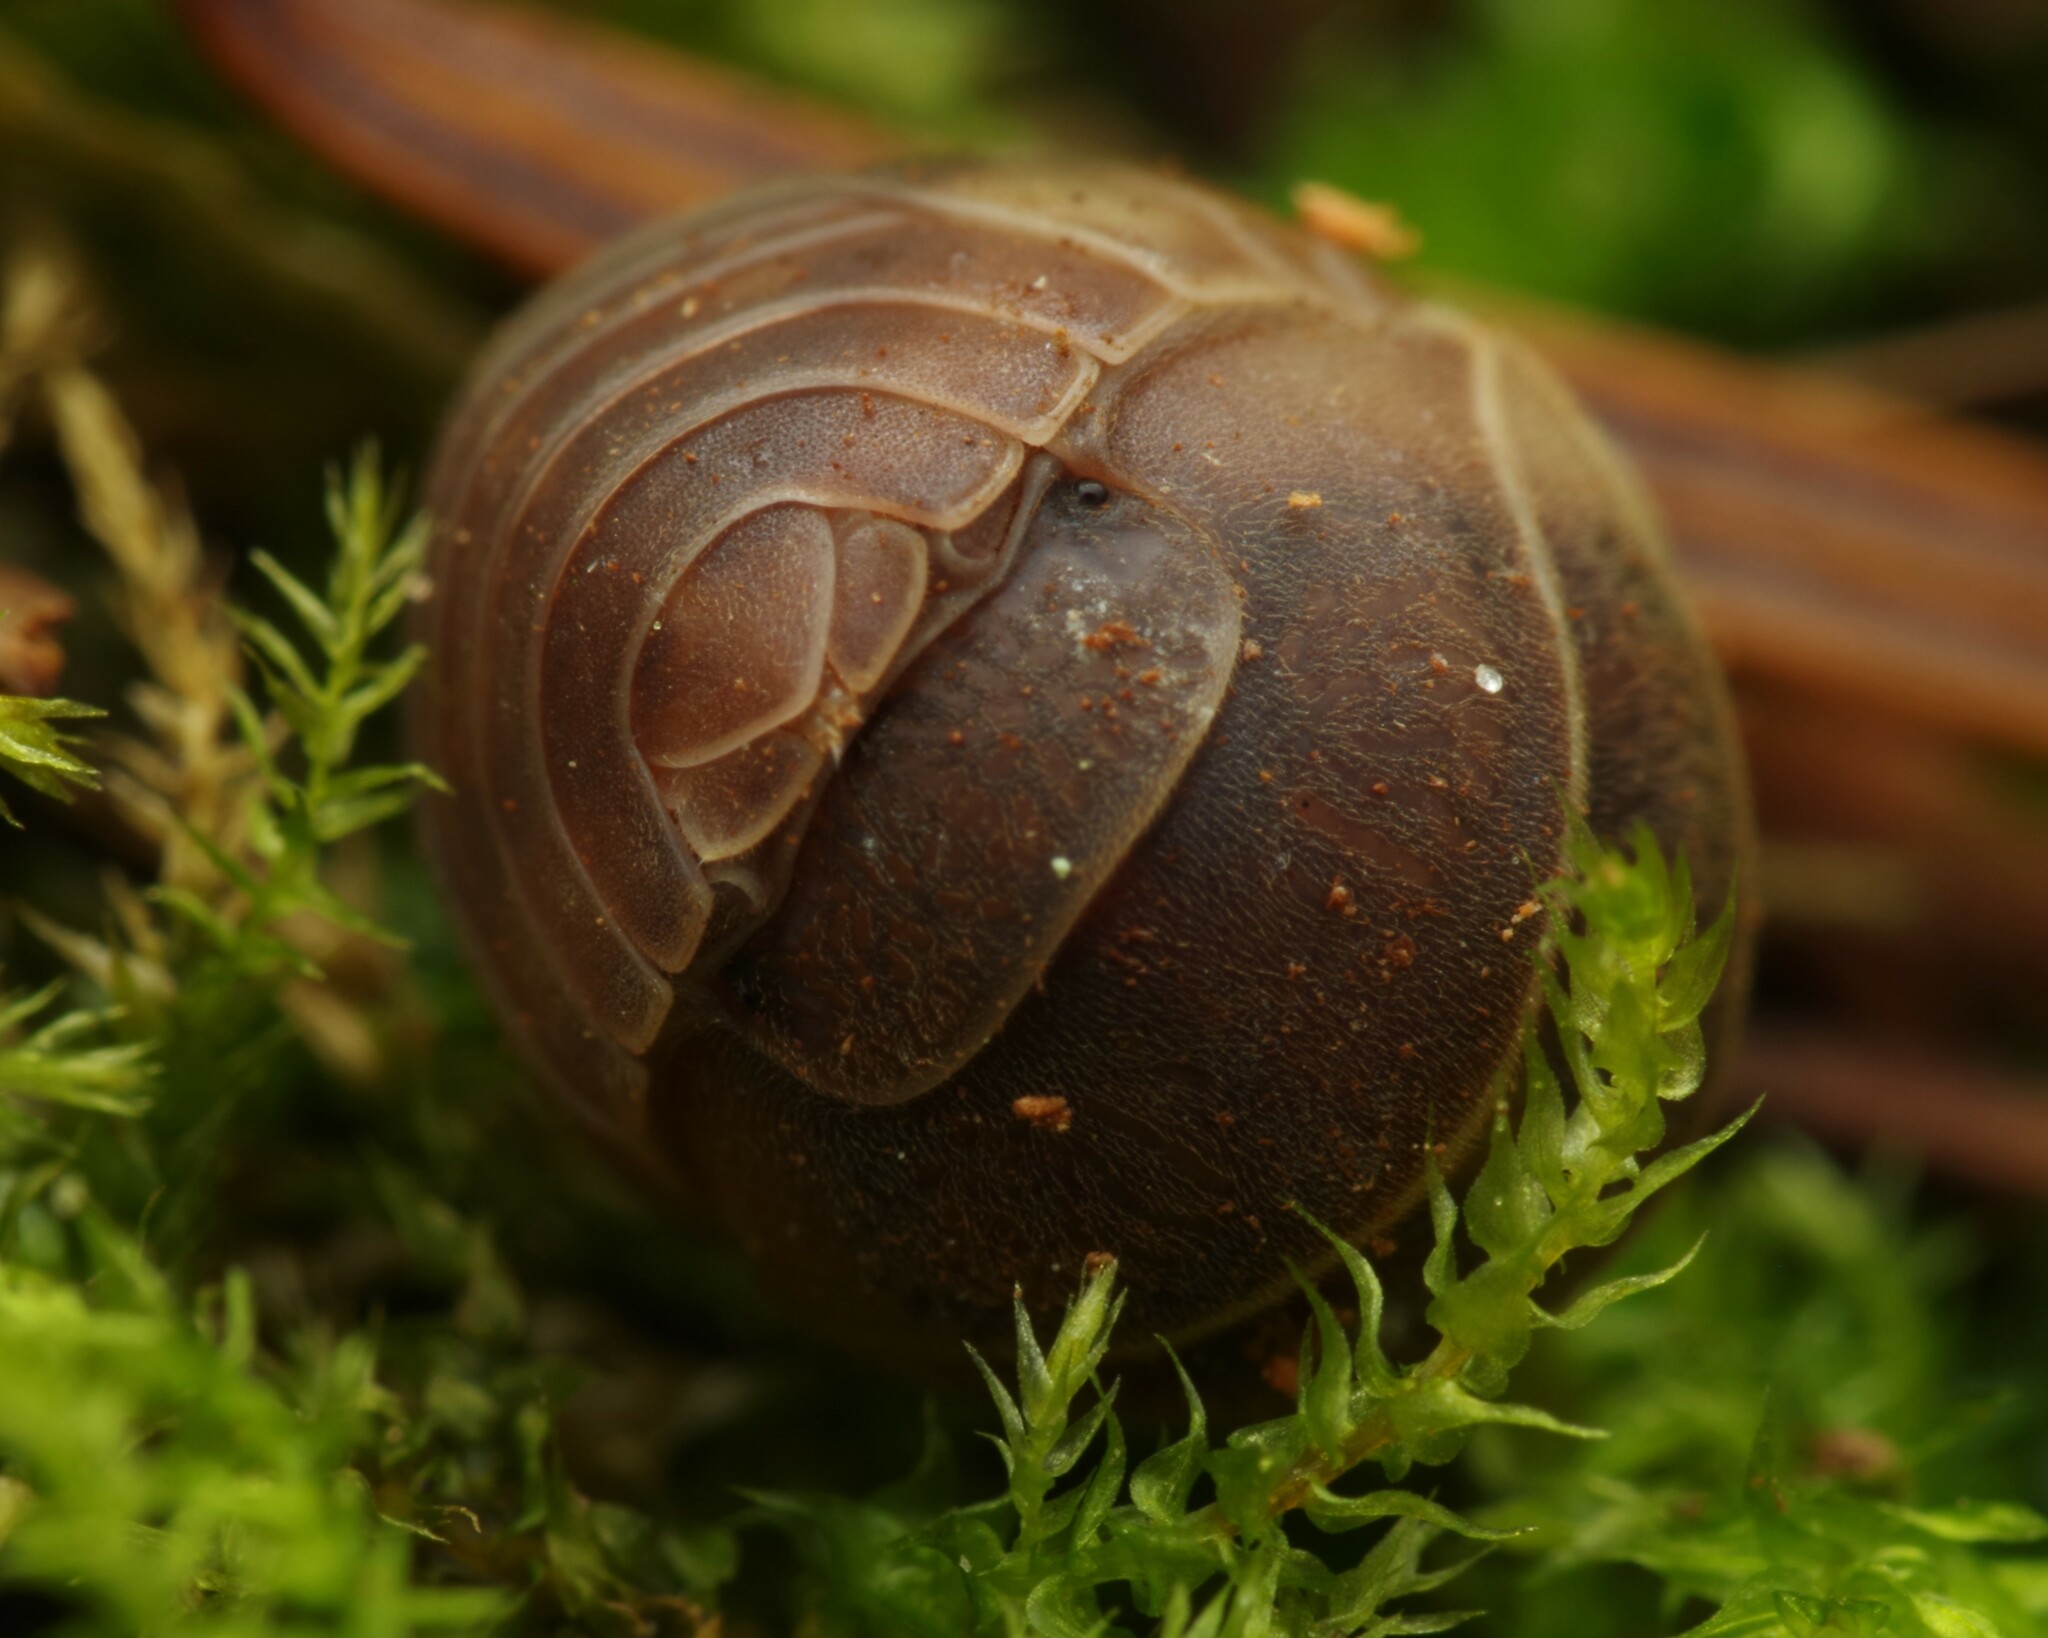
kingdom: Animalia
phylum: Arthropoda
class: Malacostraca
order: Isopoda
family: Armadillidiidae
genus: Eluma
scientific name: Eluma caelata
